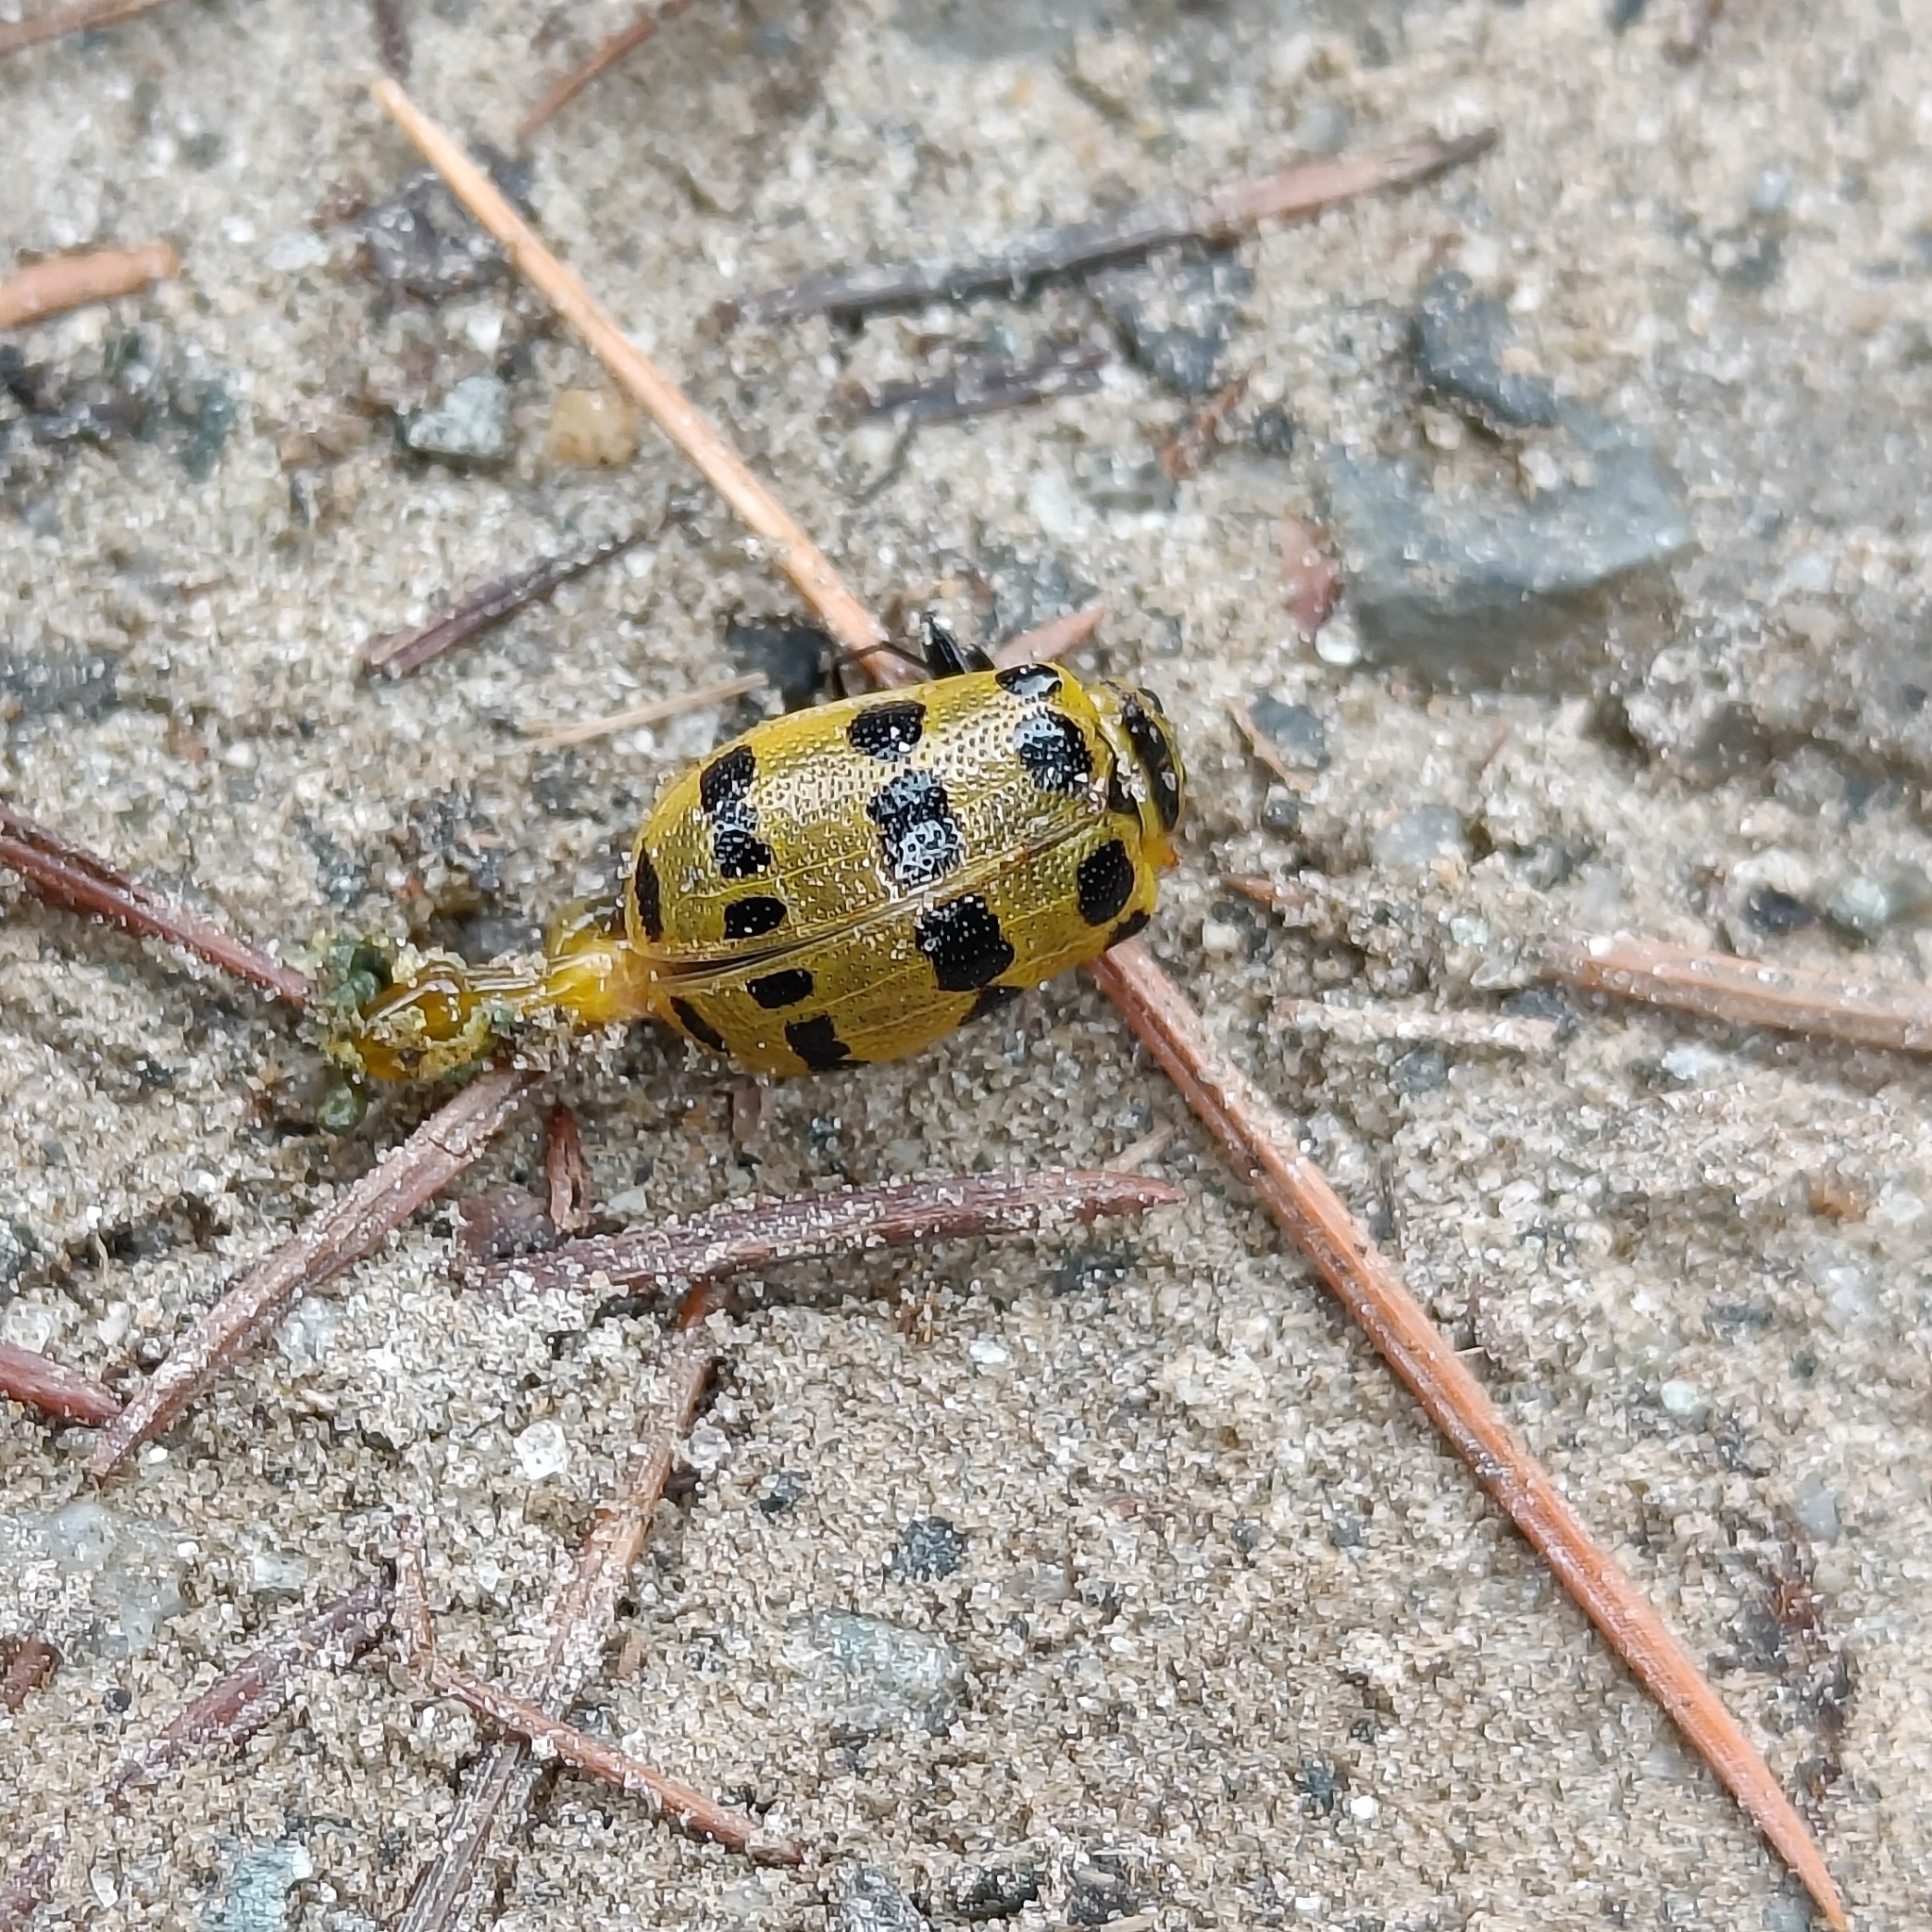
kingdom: Animalia
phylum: Arthropoda
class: Insecta
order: Coleoptera
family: Chrysomelidae
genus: Meristata
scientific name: Meristata quadrifasciata
